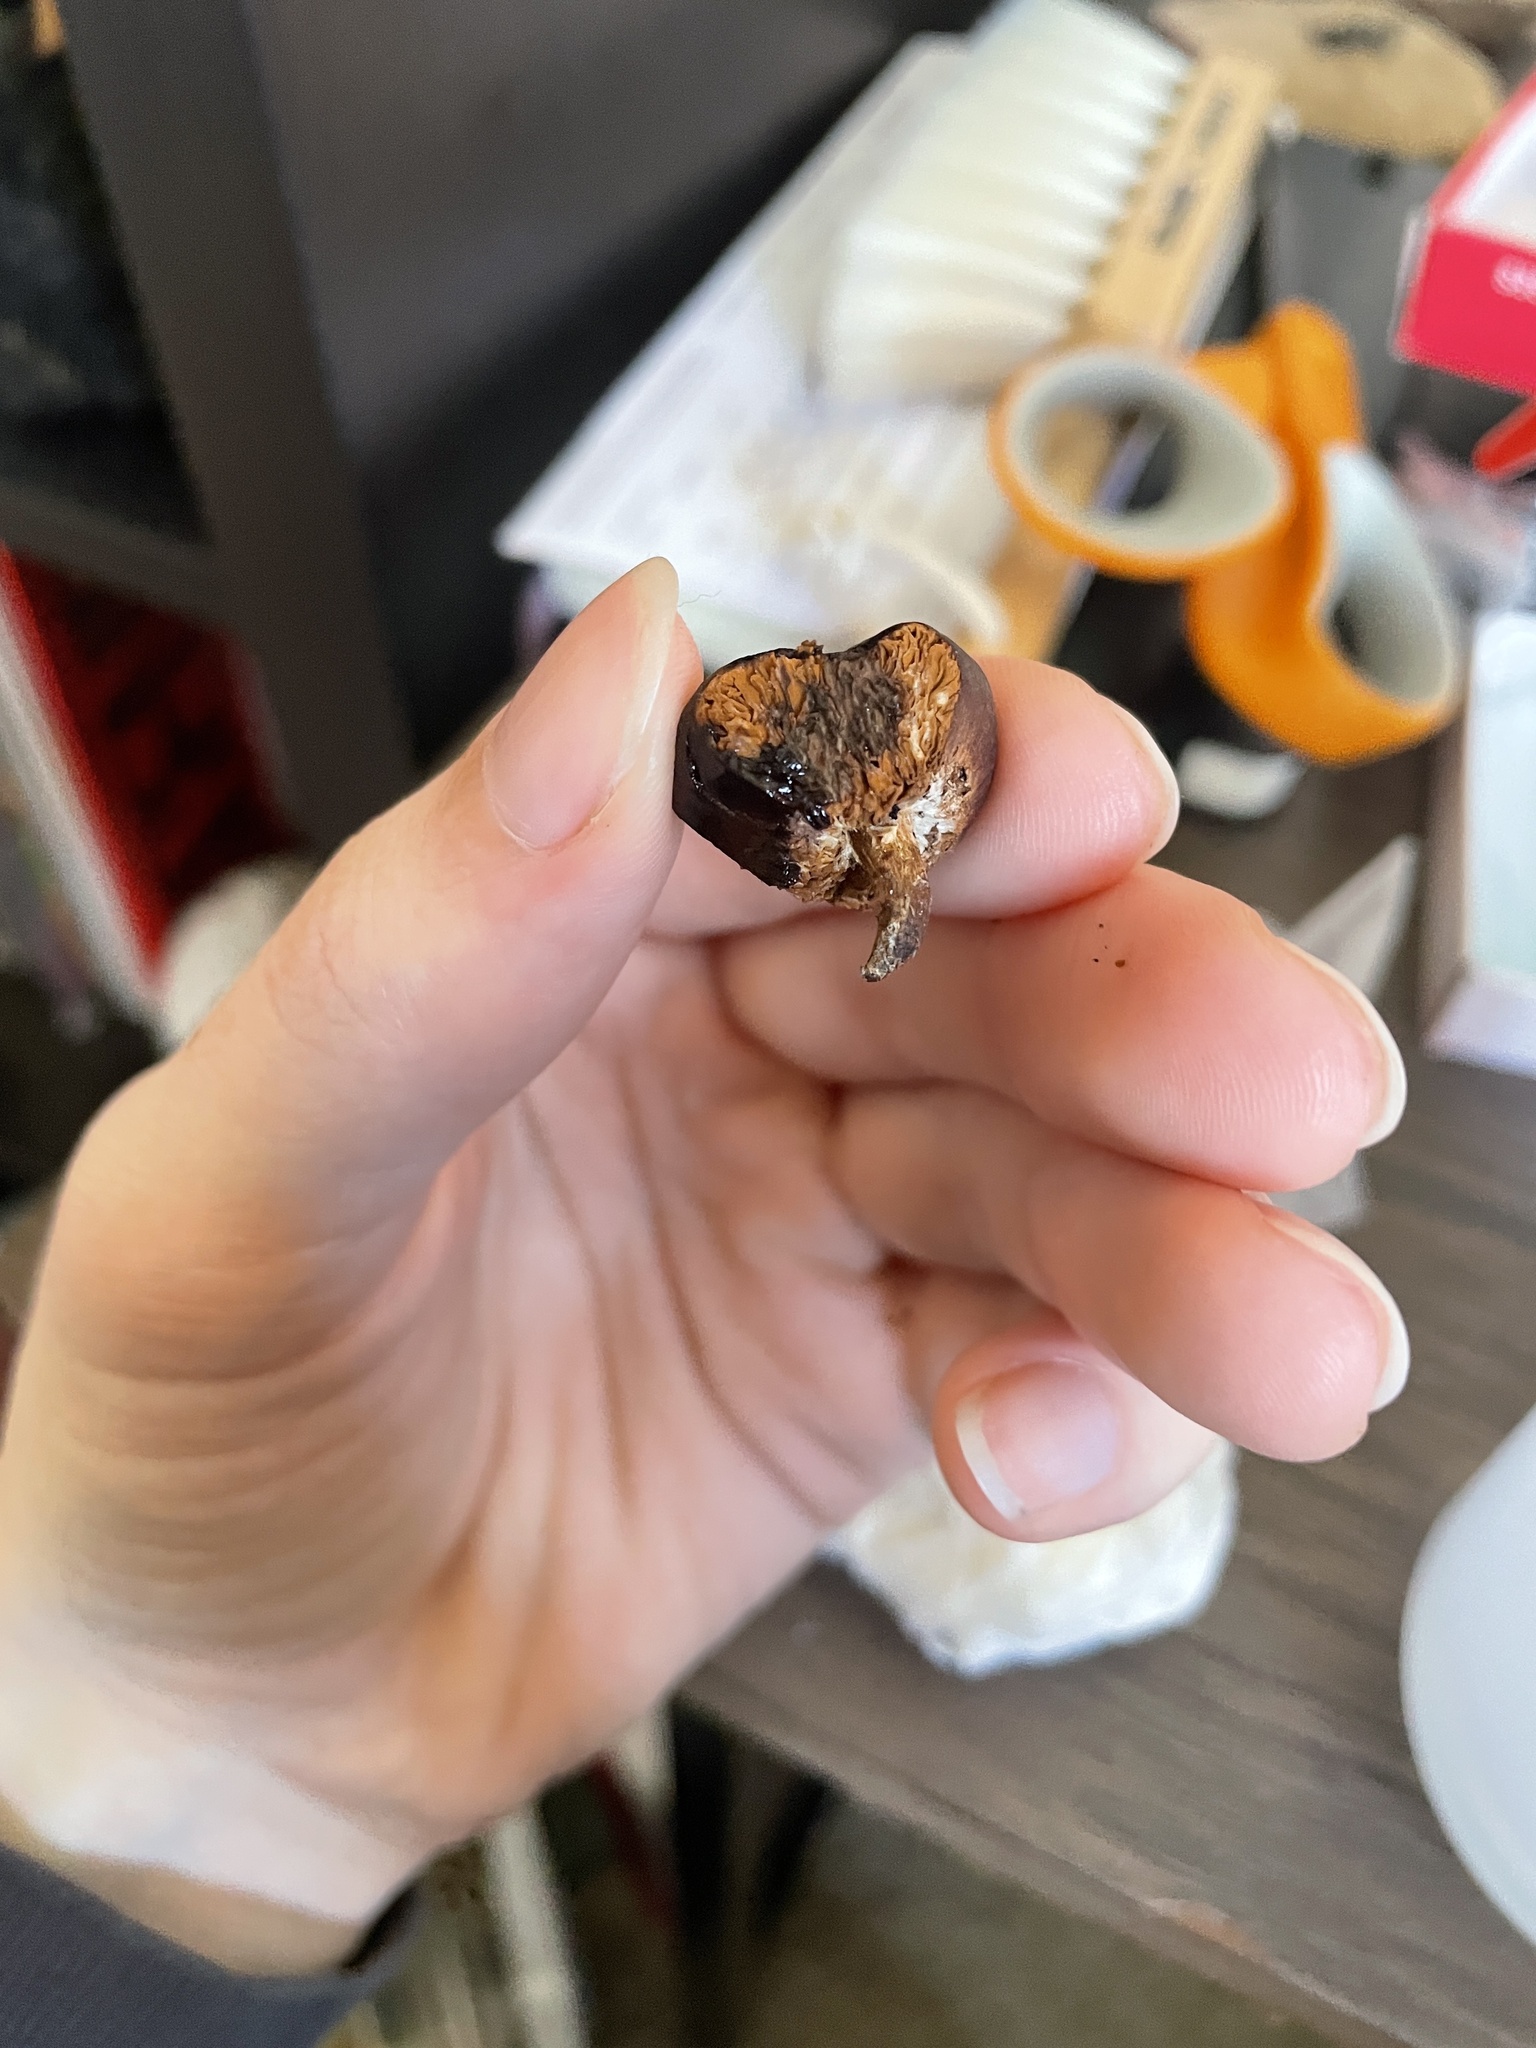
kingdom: Fungi
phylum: Basidiomycota
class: Agaricomycetes
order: Agaricales
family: Bolbitiaceae
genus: Setchelliogaster
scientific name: Setchelliogaster tenuipes
